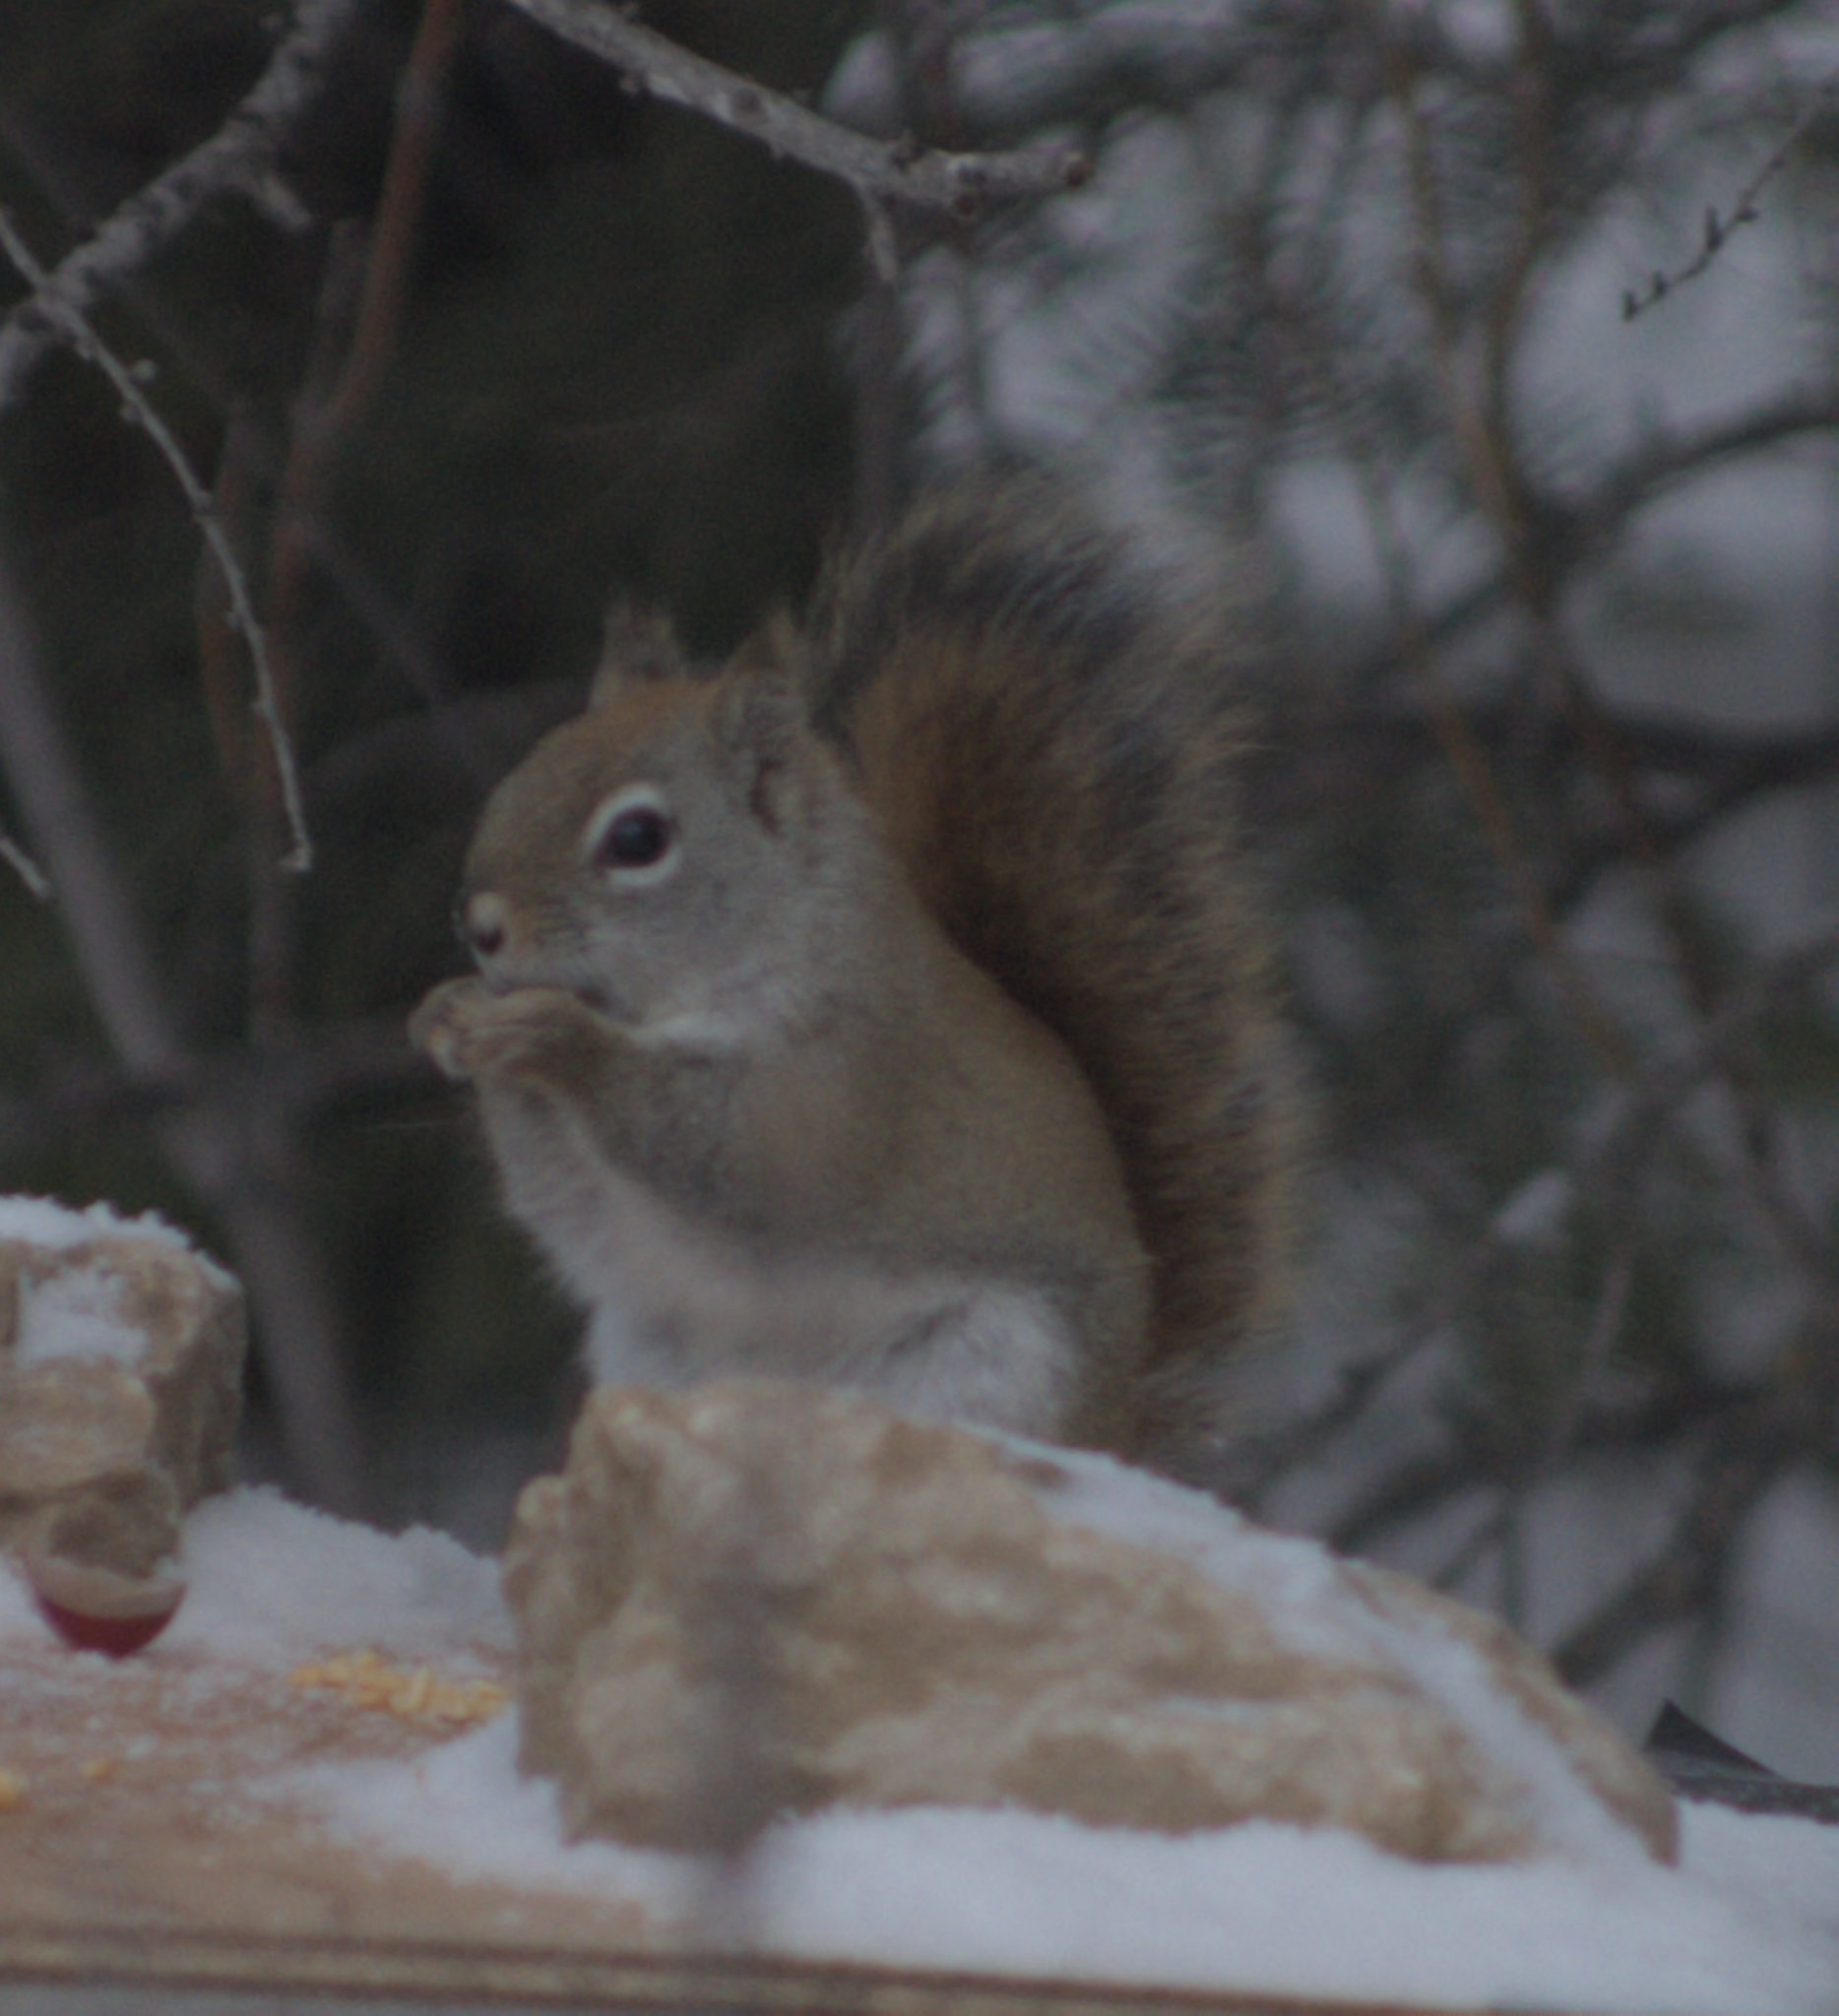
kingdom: Animalia
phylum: Chordata
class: Mammalia
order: Rodentia
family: Sciuridae
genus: Tamiasciurus
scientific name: Tamiasciurus hudsonicus
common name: Red squirrel
